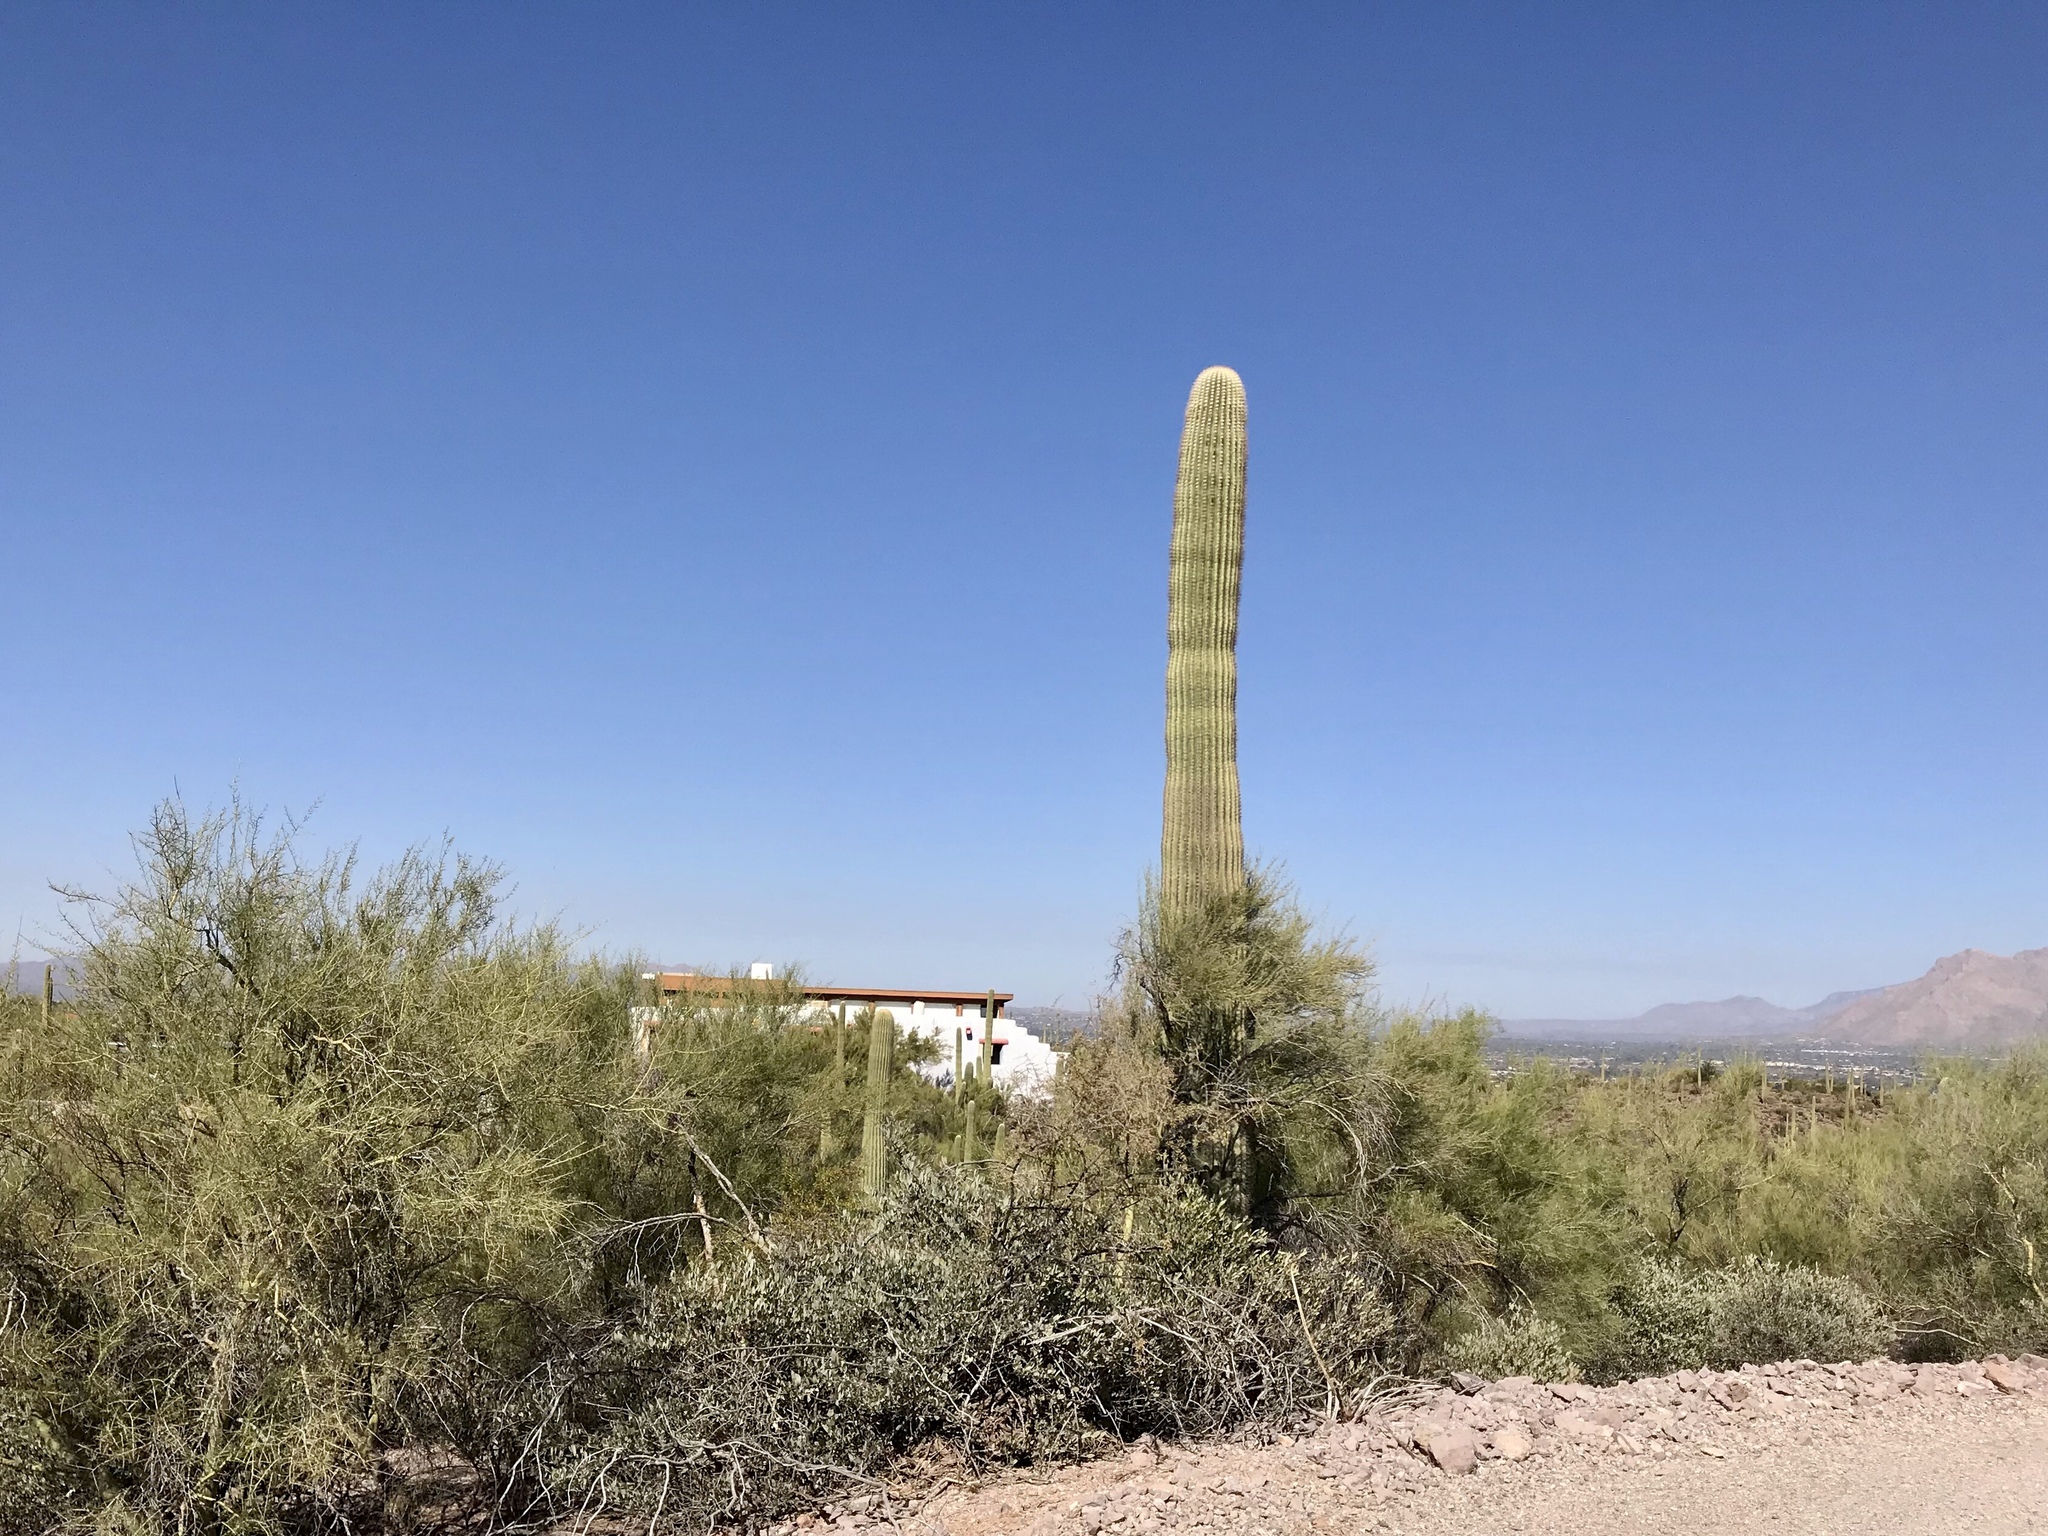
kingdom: Plantae
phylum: Tracheophyta
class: Magnoliopsida
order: Caryophyllales
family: Cactaceae
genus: Carnegiea
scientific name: Carnegiea gigantea
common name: Saguaro
